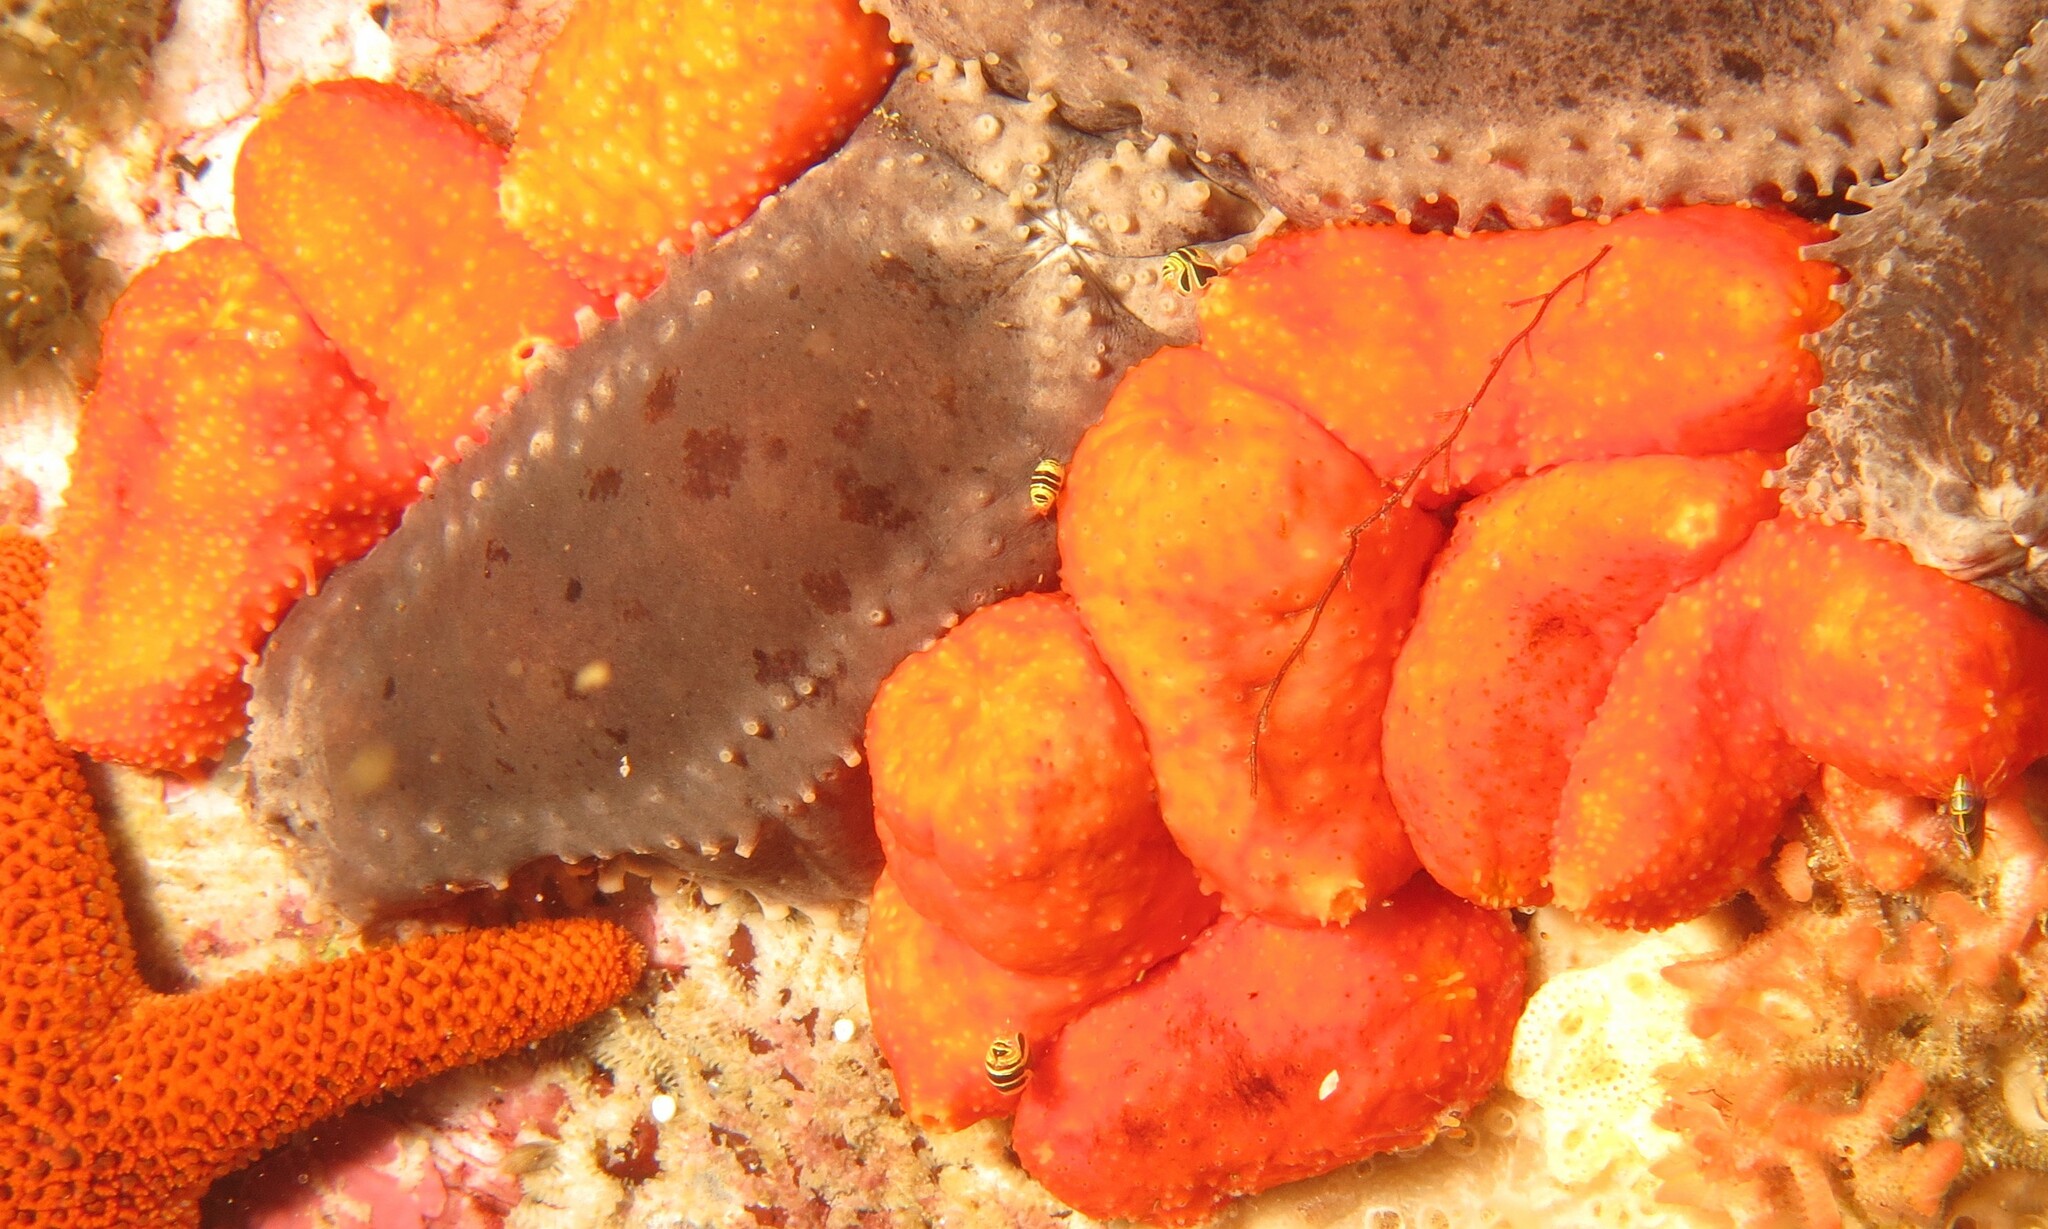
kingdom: Animalia
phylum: Echinodermata
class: Holothuroidea
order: Dendrochirotida
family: Cucumariidae
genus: Hemiocnus
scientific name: Hemiocnus insolens
